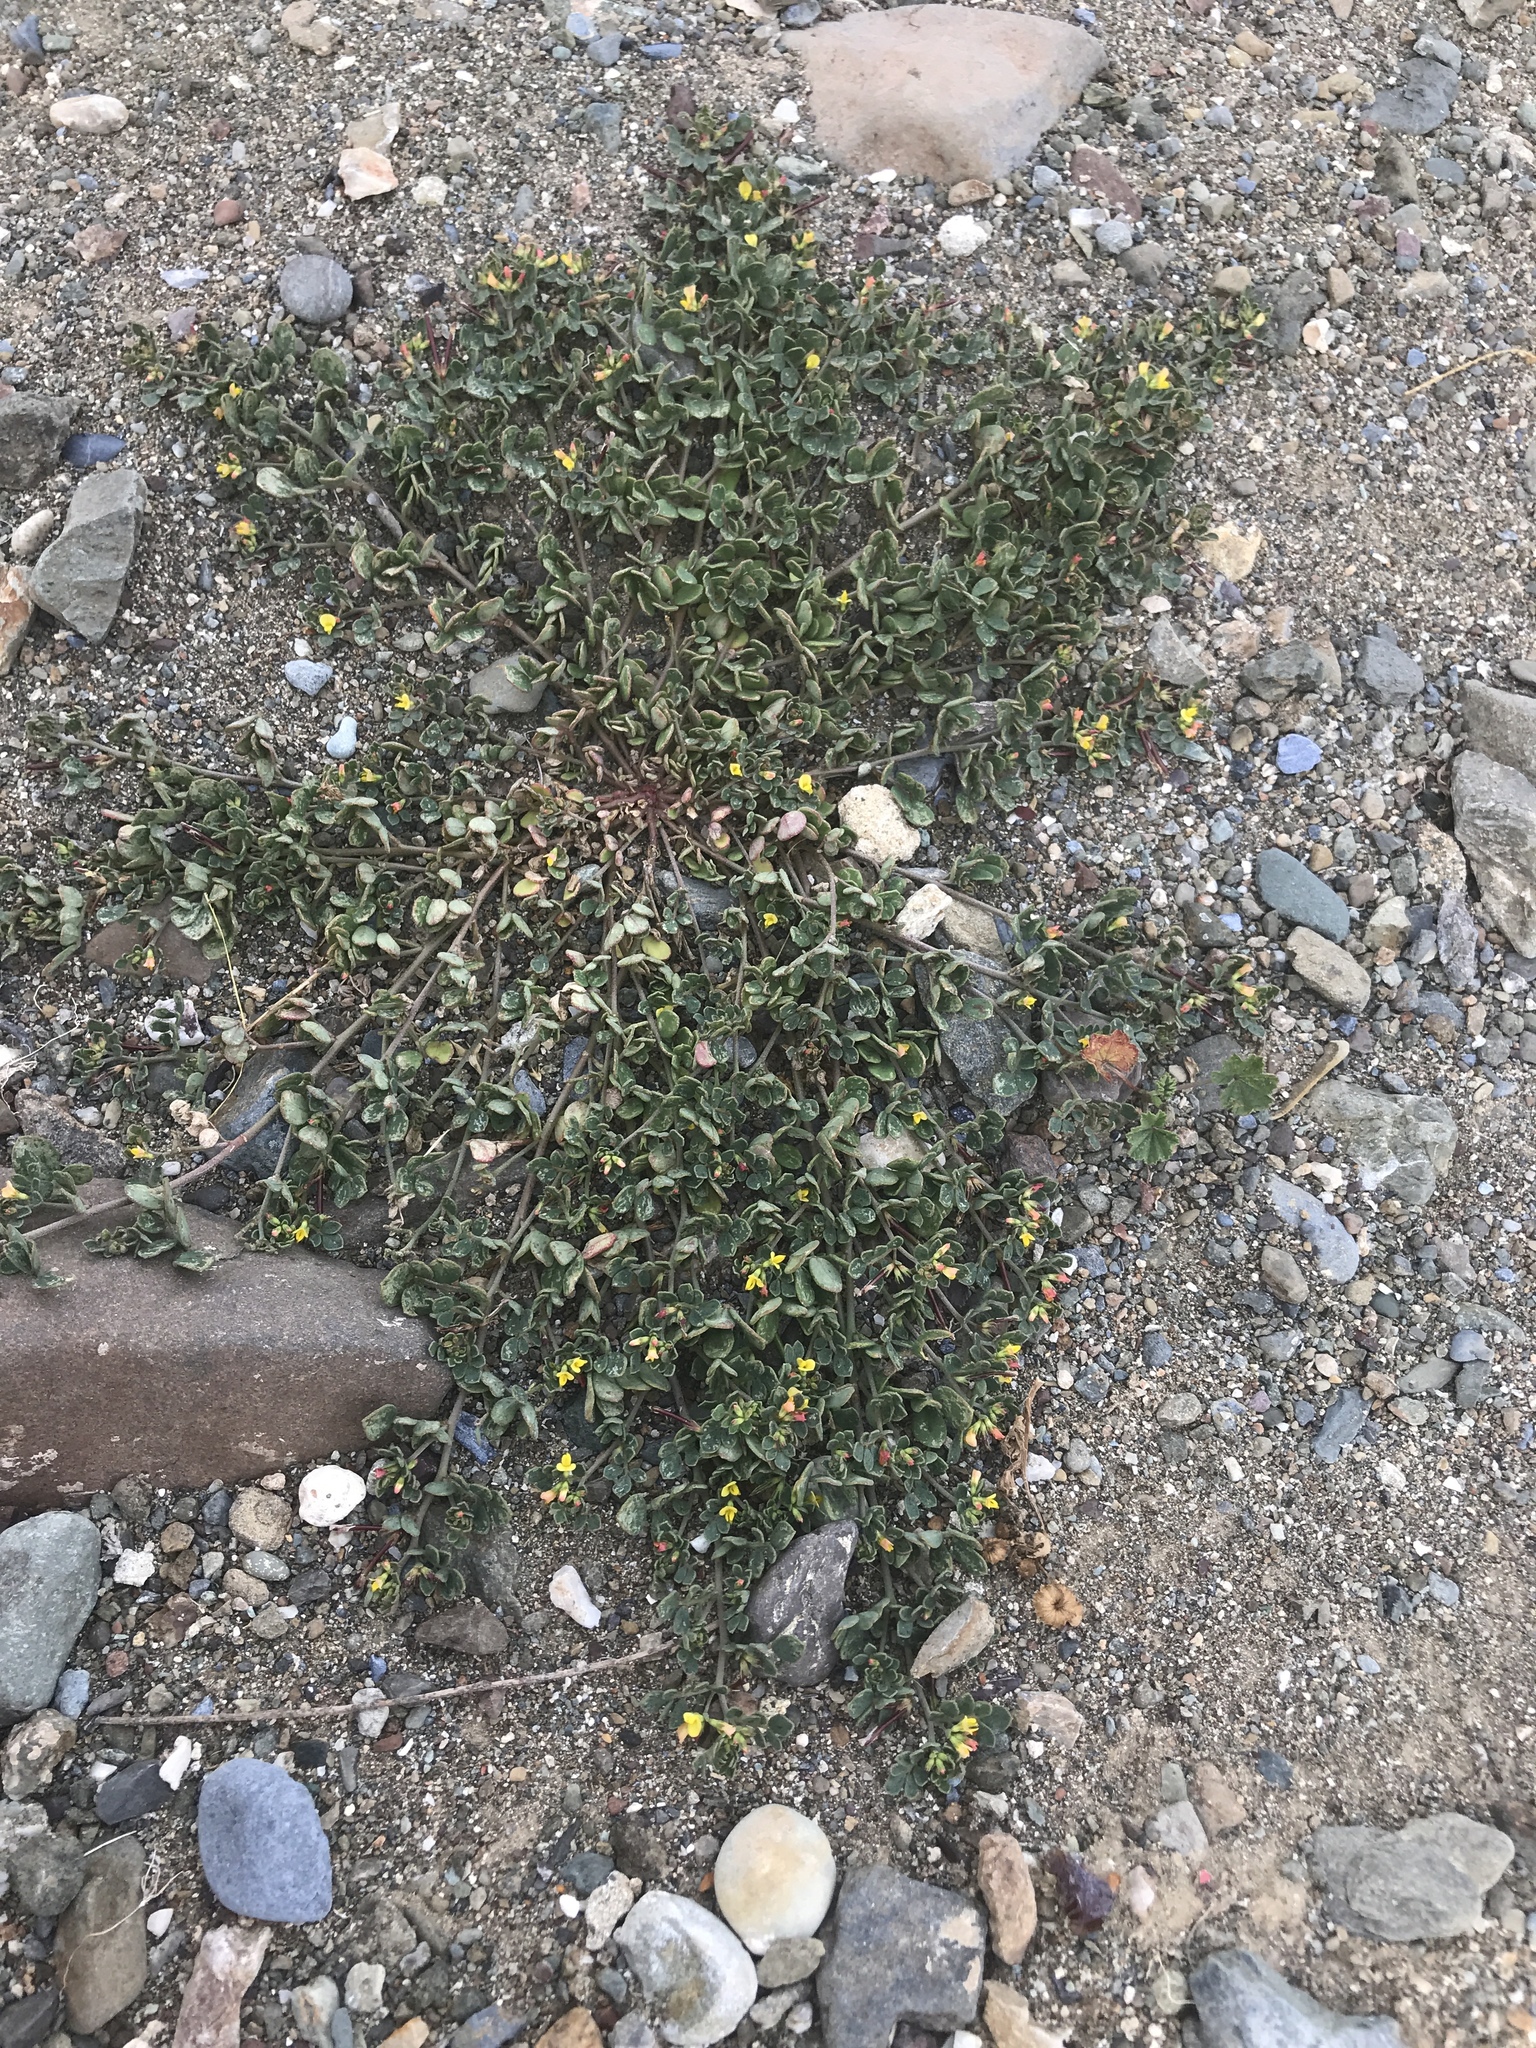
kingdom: Plantae
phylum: Tracheophyta
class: Magnoliopsida
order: Fabales
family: Fabaceae
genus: Acmispon
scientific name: Acmispon maritimus
